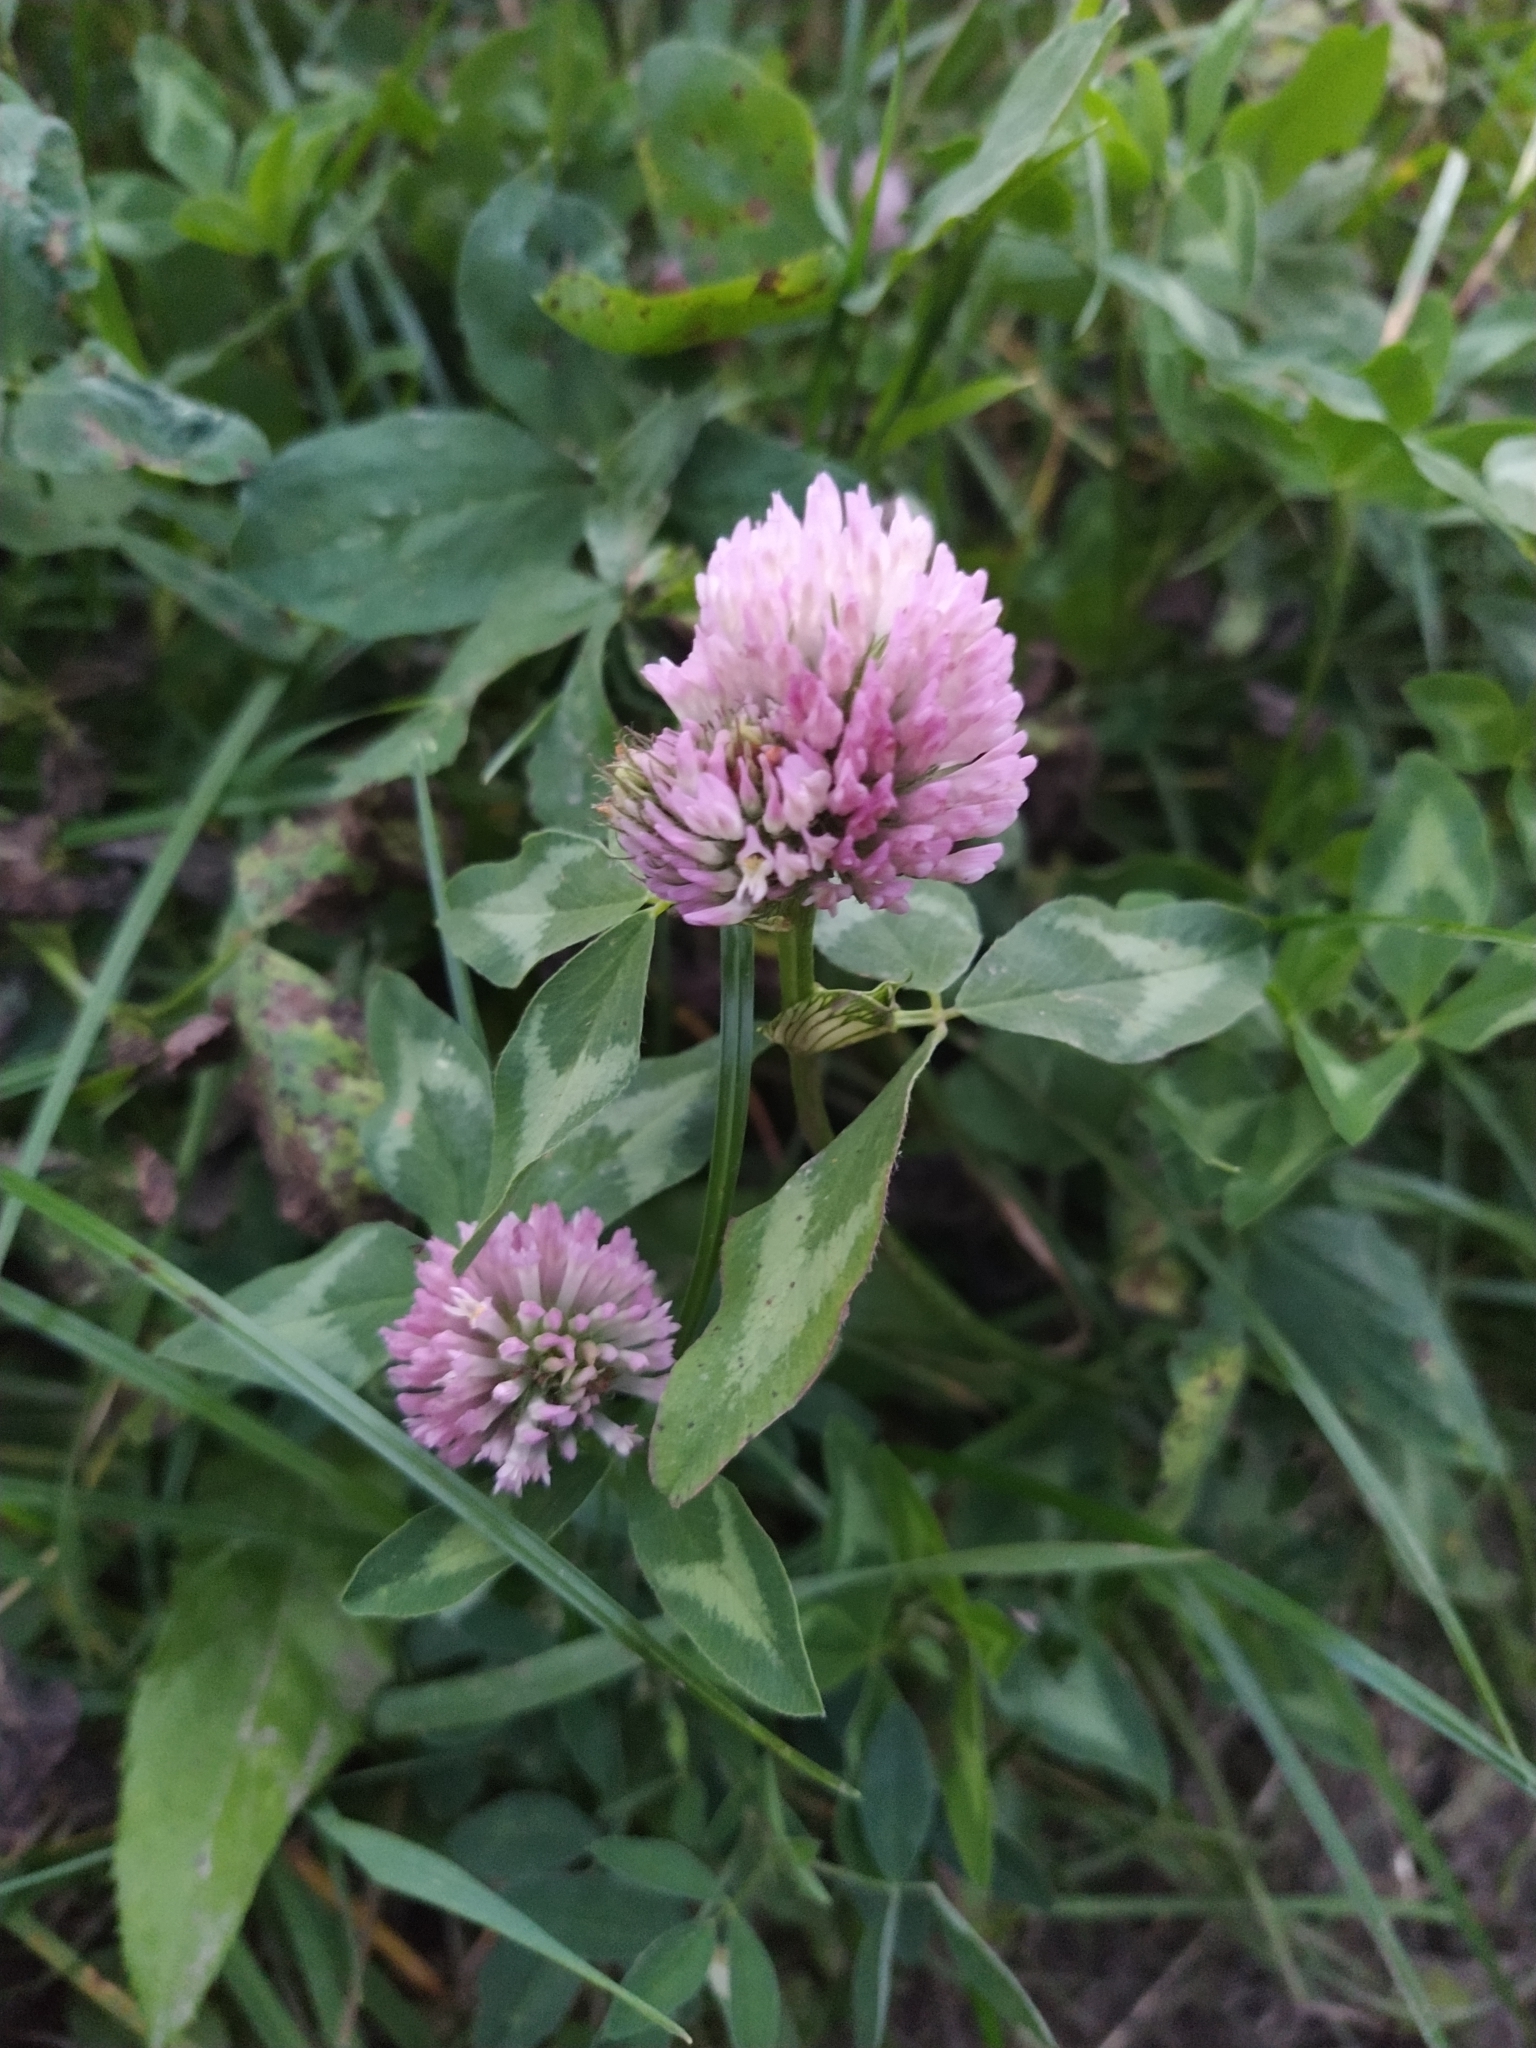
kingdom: Plantae
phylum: Tracheophyta
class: Magnoliopsida
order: Fabales
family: Fabaceae
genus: Trifolium
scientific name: Trifolium pratense
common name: Red clover
